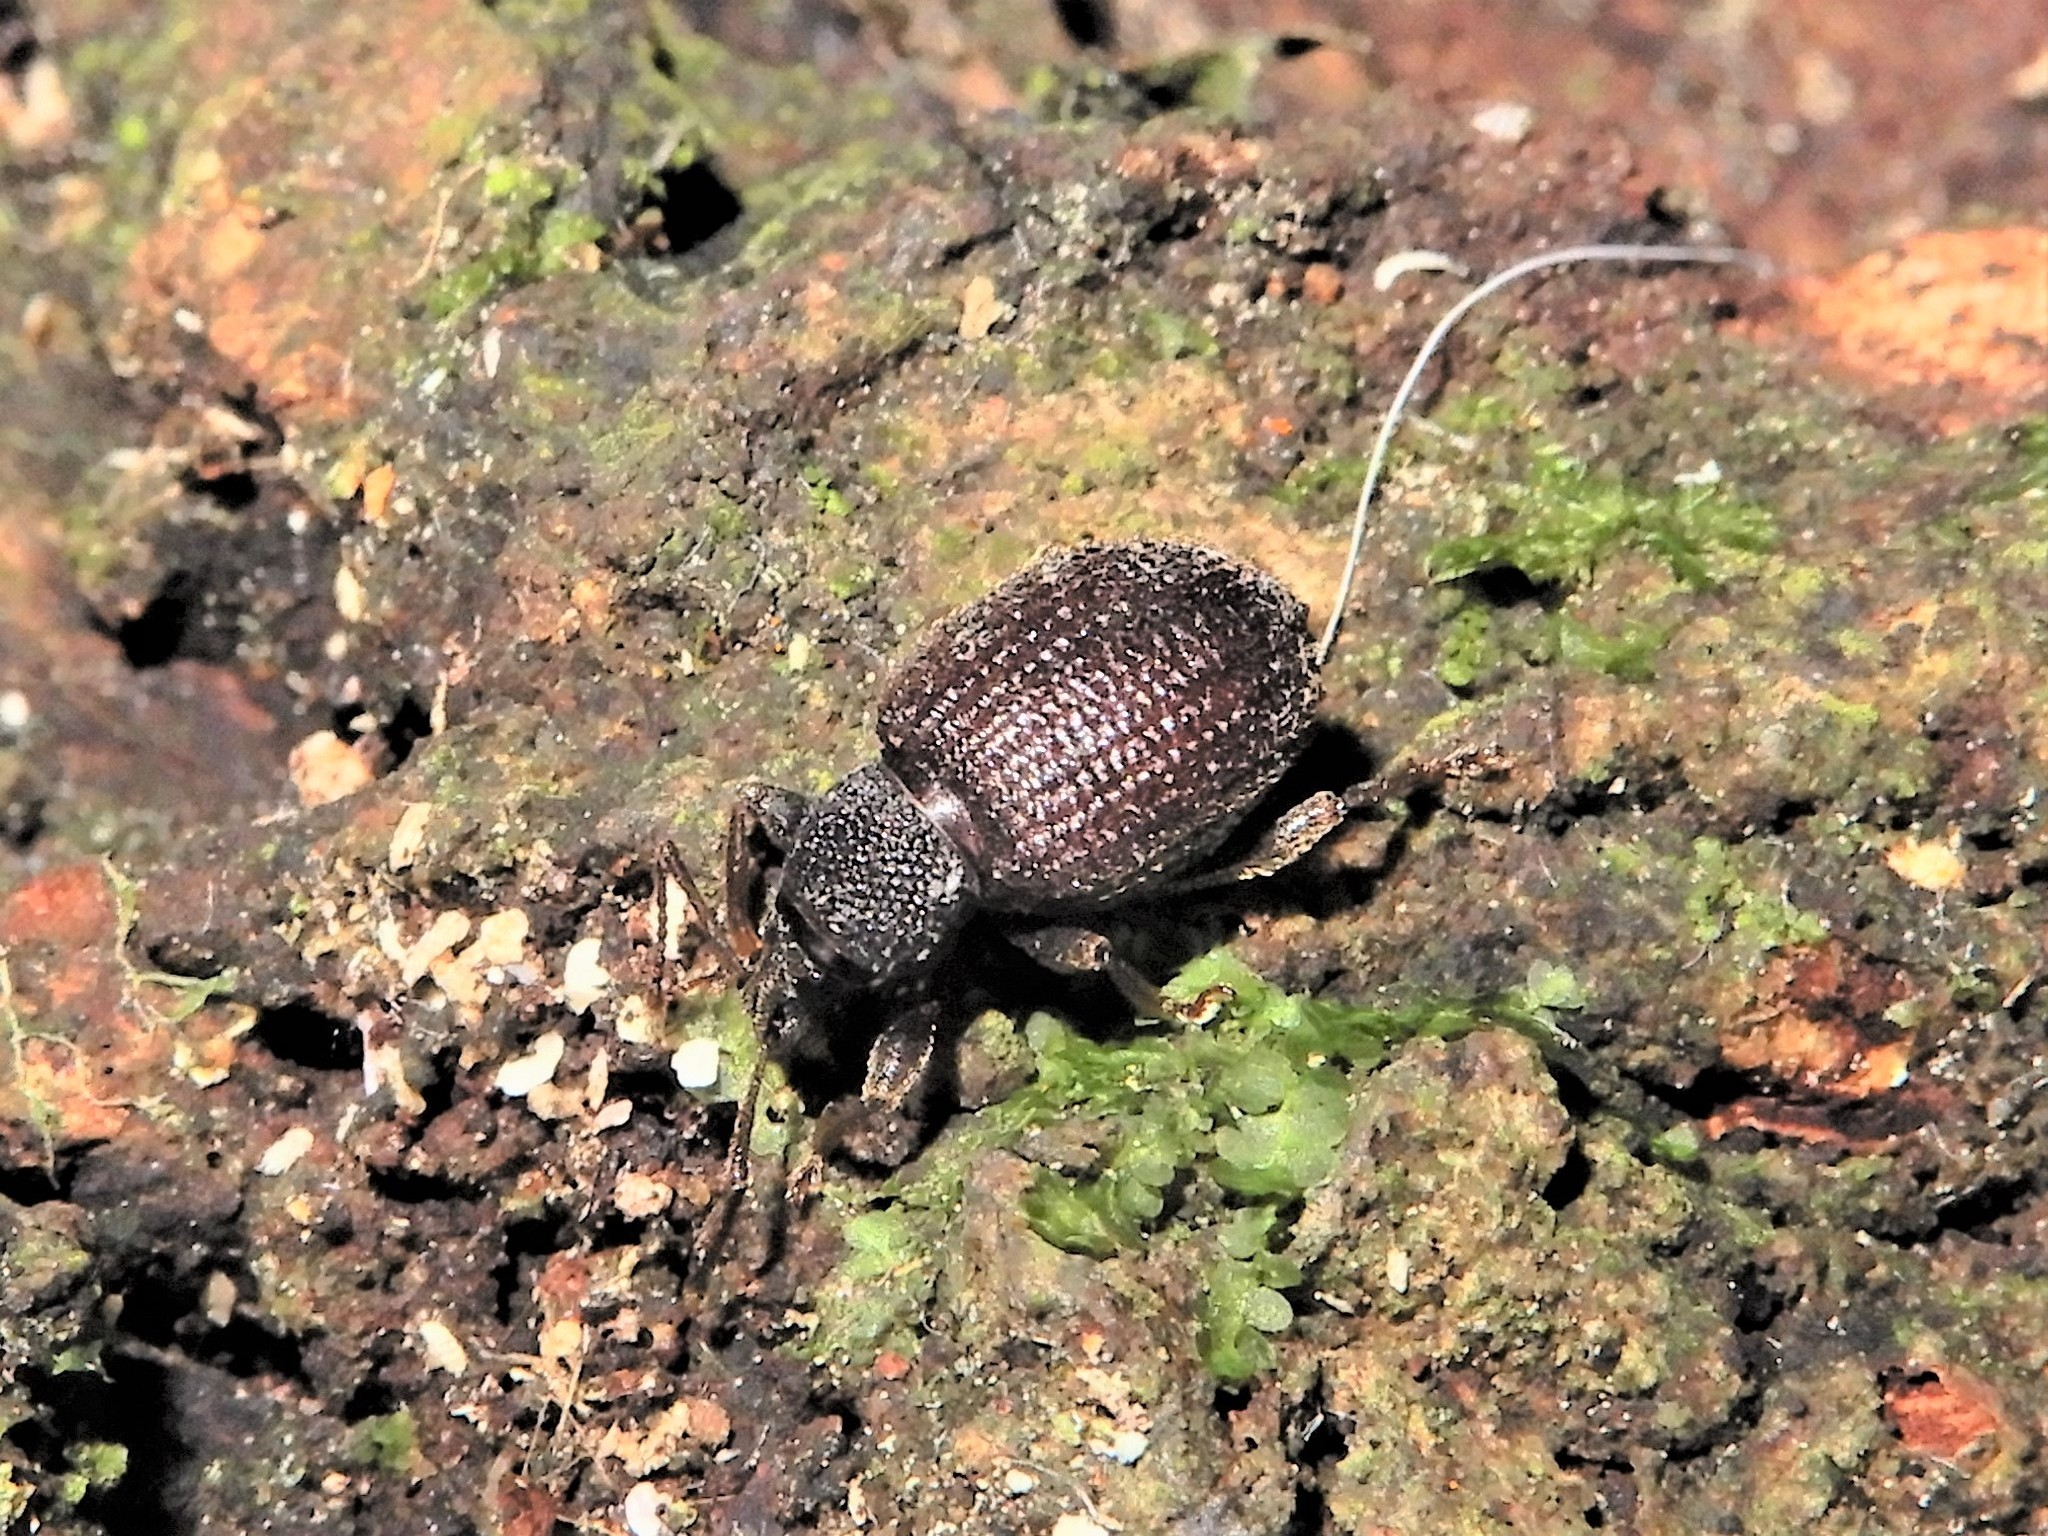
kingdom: Animalia
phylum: Arthropoda
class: Insecta
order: Coleoptera
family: Curculionidae
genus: Otiorhynchus
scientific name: Otiorhynchus rugosostriatus
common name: Weevil
